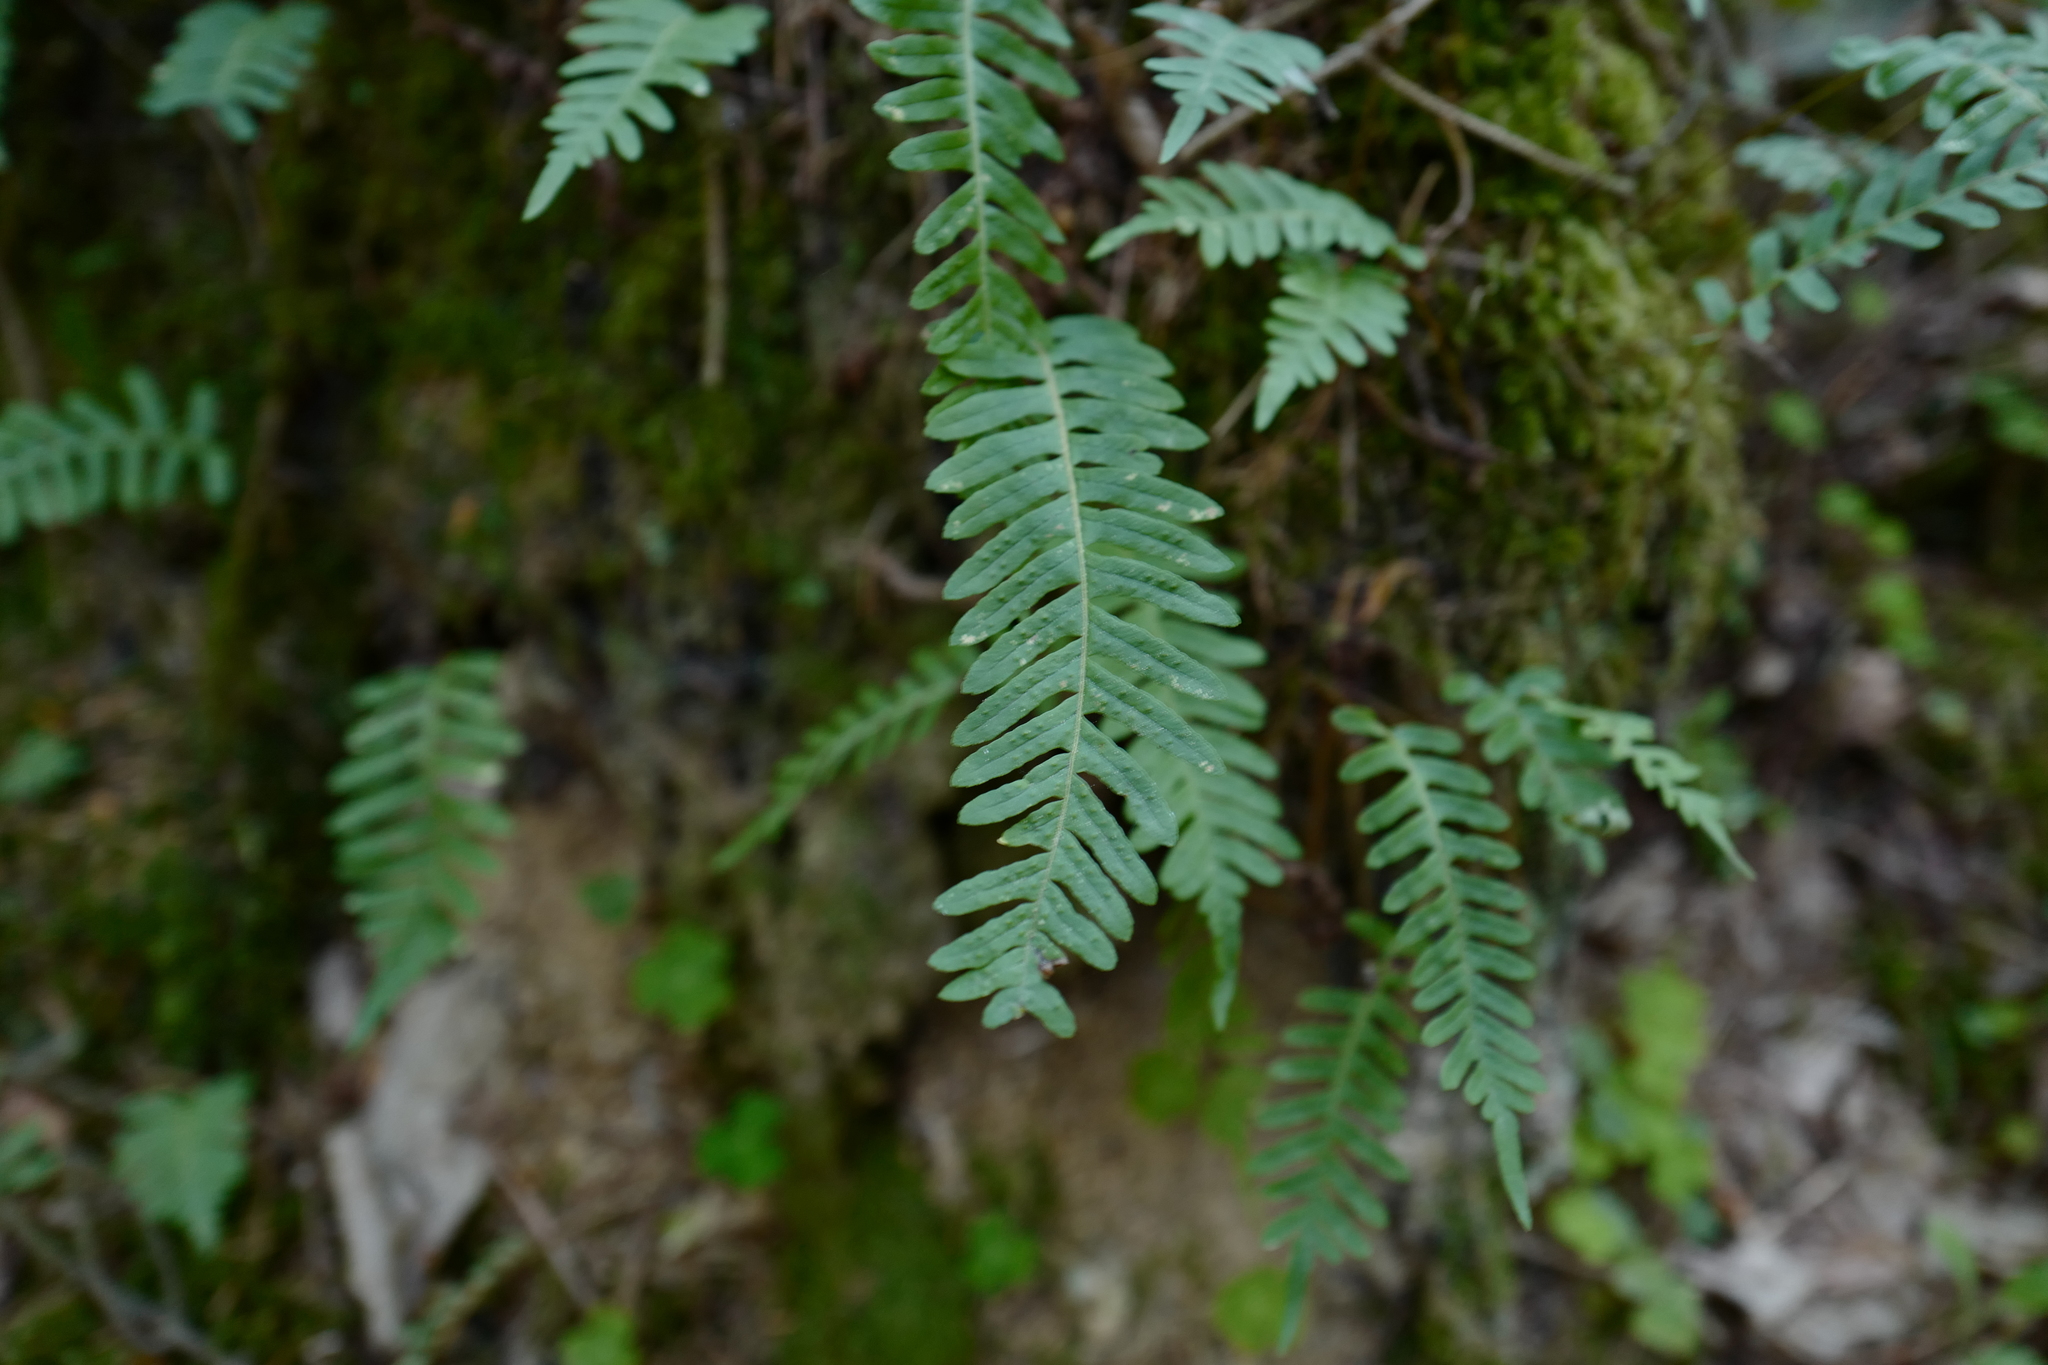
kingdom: Plantae
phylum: Tracheophyta
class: Polypodiopsida
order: Polypodiales
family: Polypodiaceae
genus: Polypodium
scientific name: Polypodium vulgare
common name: Common polypody
